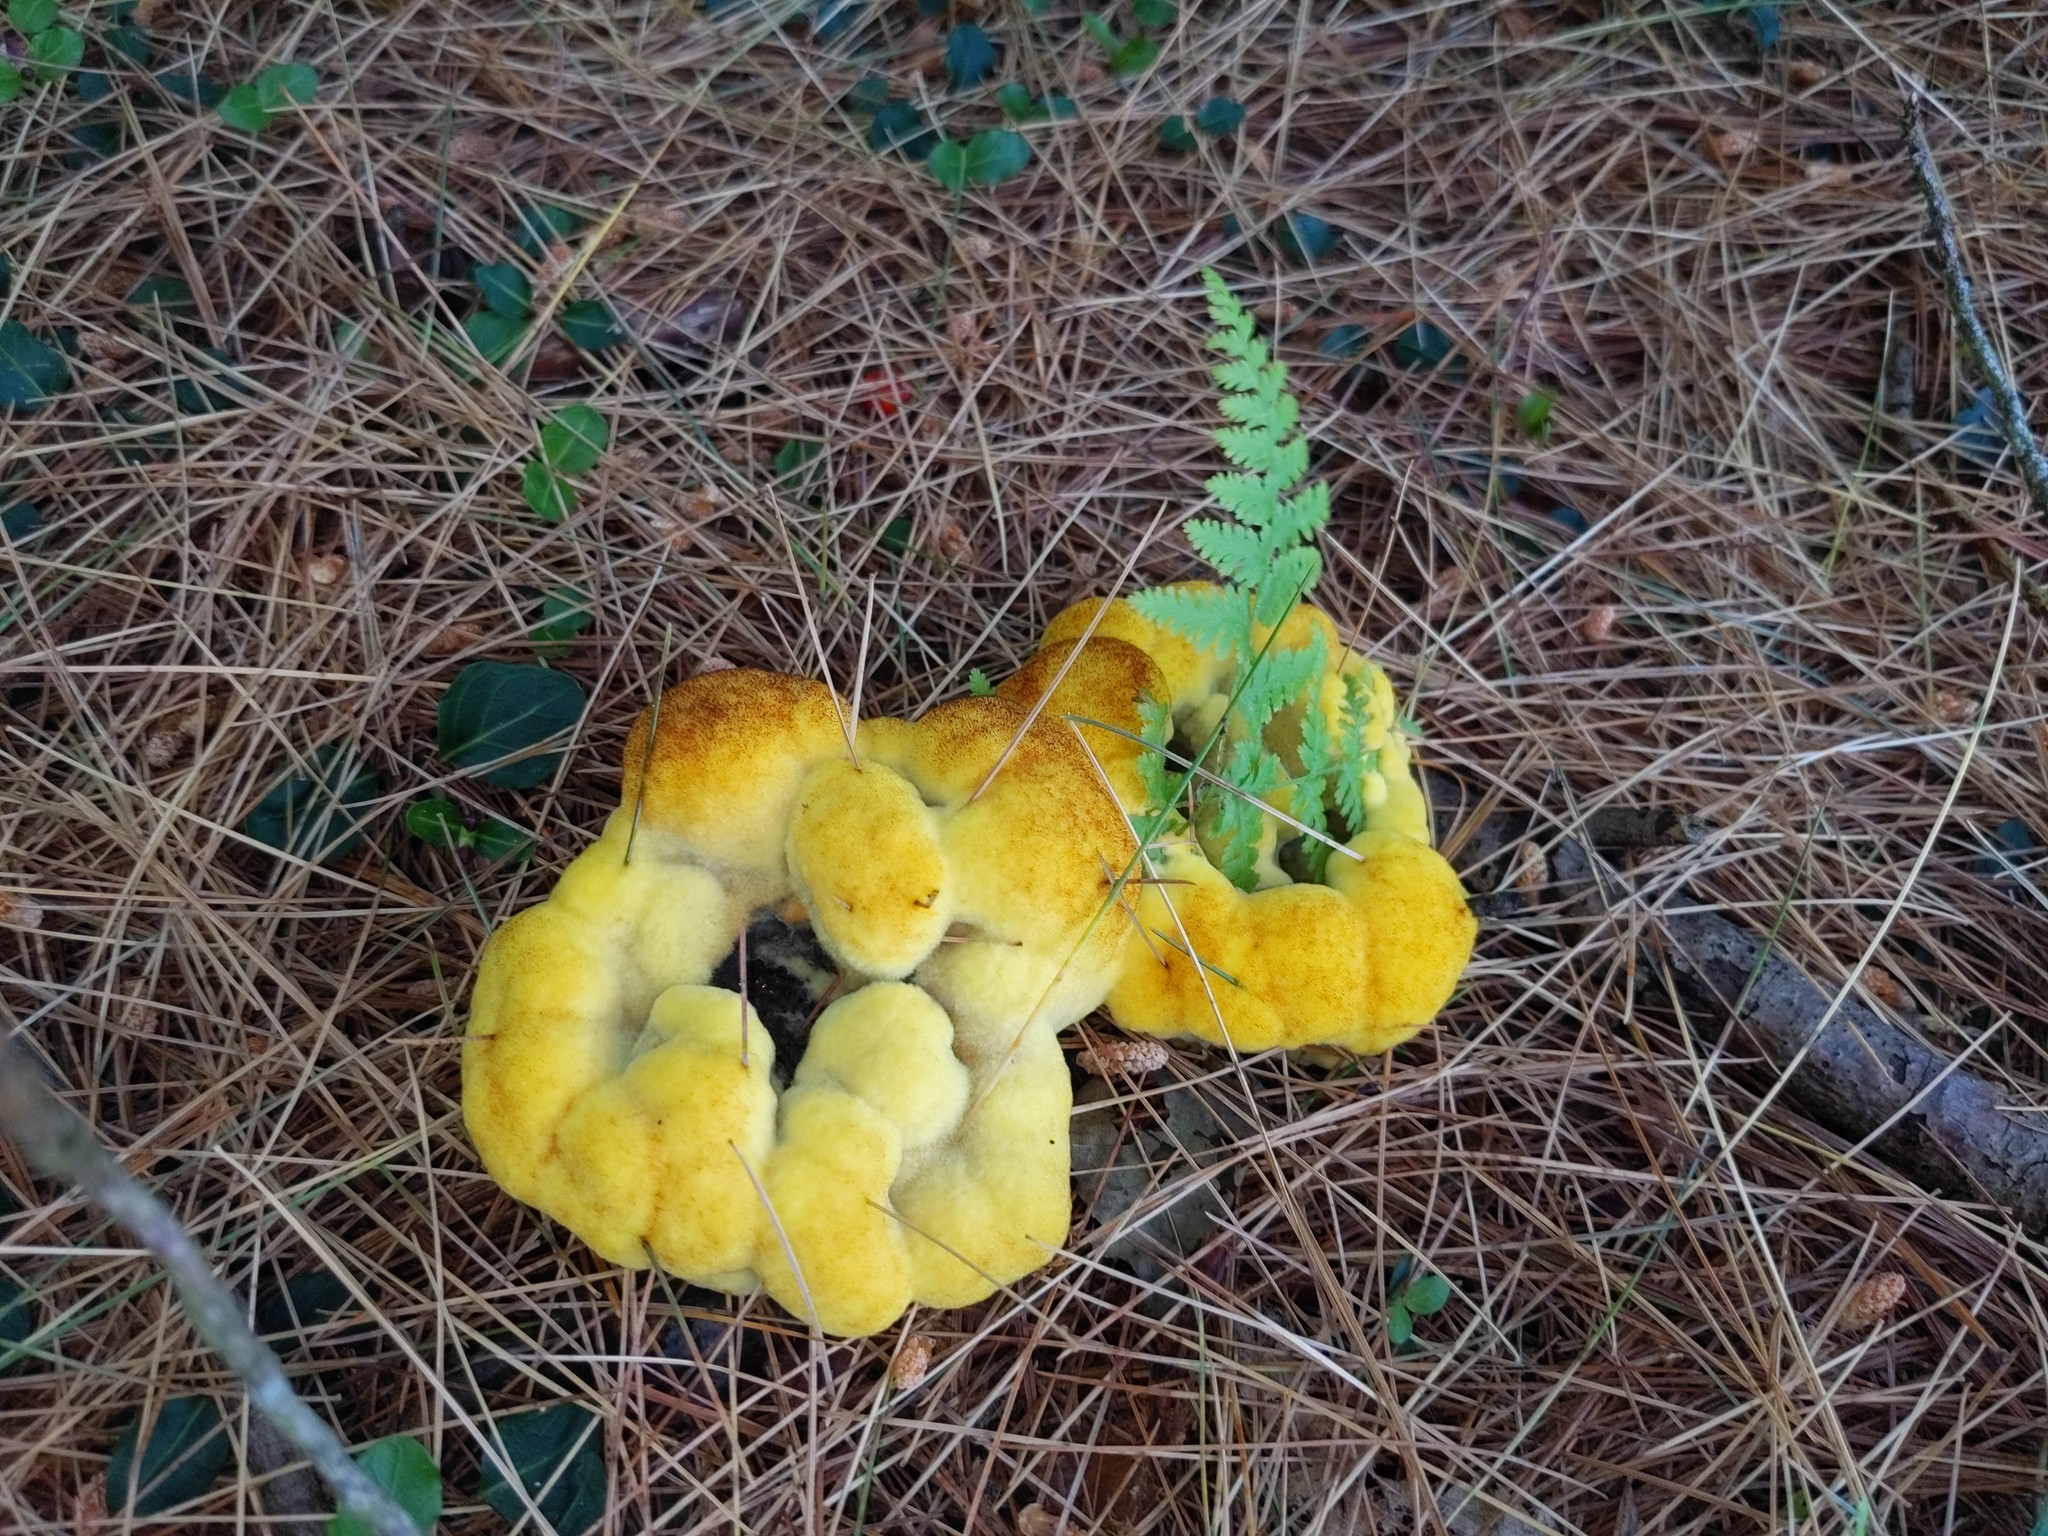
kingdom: Fungi
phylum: Basidiomycota
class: Agaricomycetes
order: Polyporales
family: Laetiporaceae
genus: Phaeolus
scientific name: Phaeolus schweinitzii
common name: Dyer's mazegill
